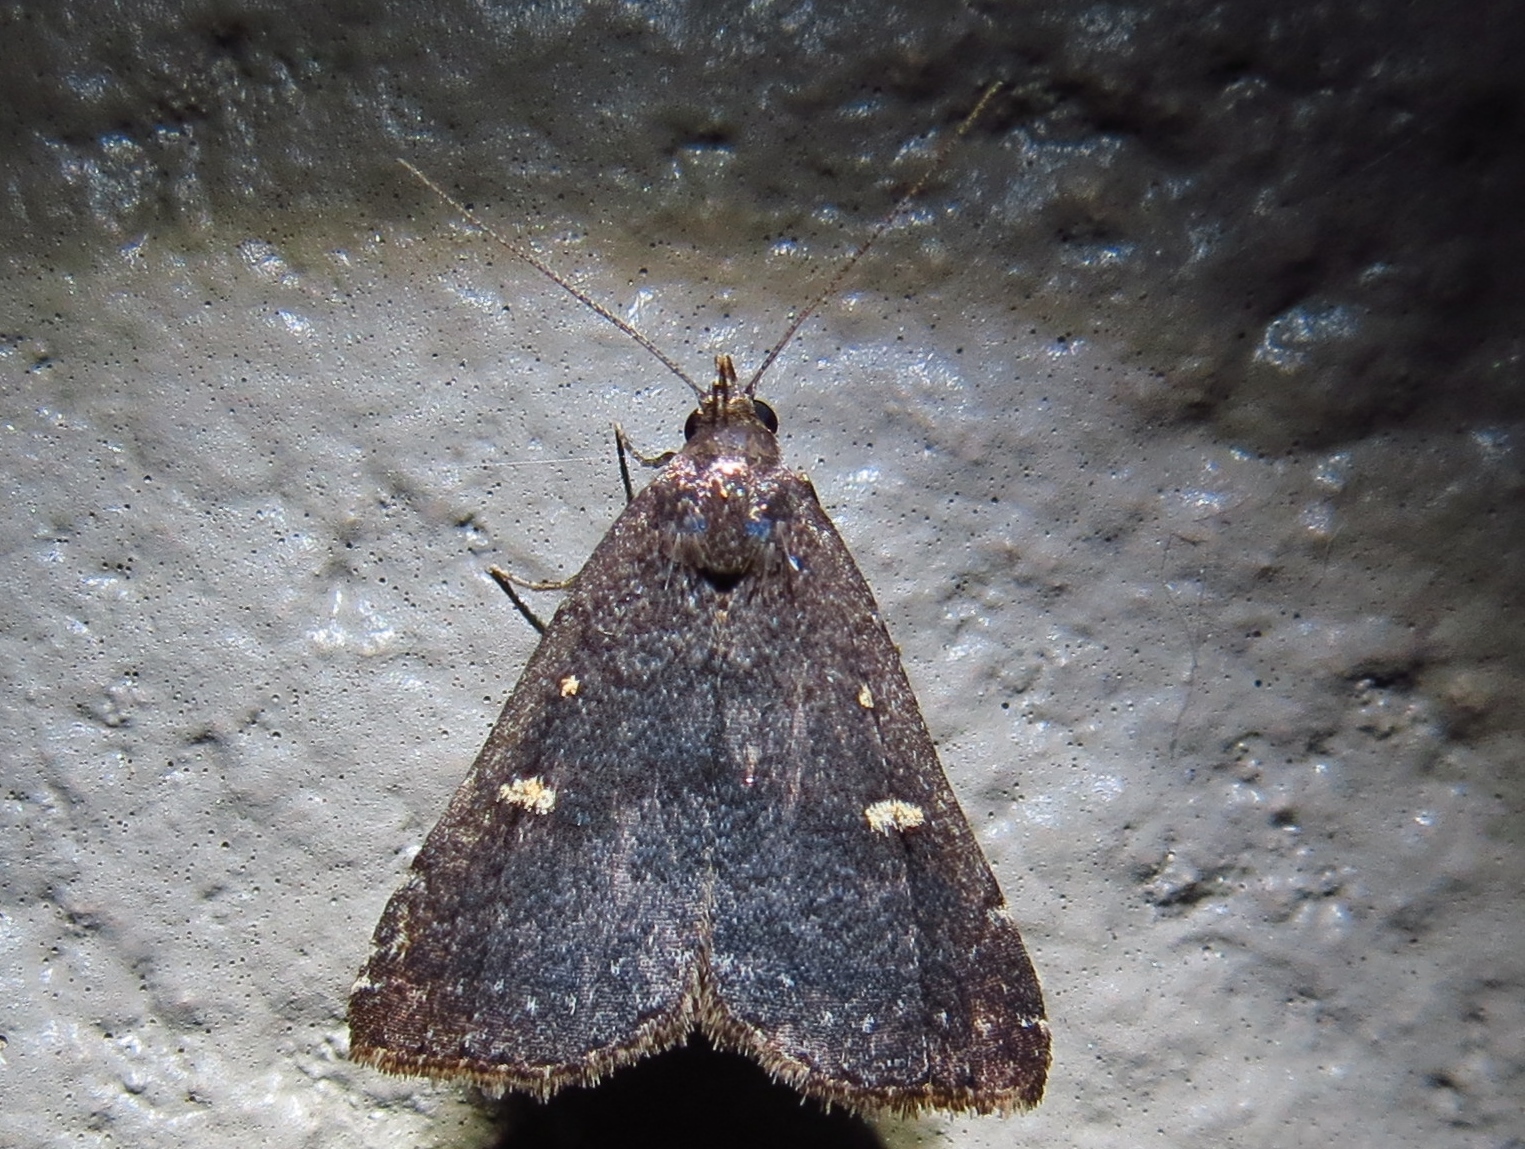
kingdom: Animalia
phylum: Arthropoda
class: Insecta
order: Lepidoptera
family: Erebidae
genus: Tetanolita
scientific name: Tetanolita mynesalis
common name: Smoky tetanolita moth
